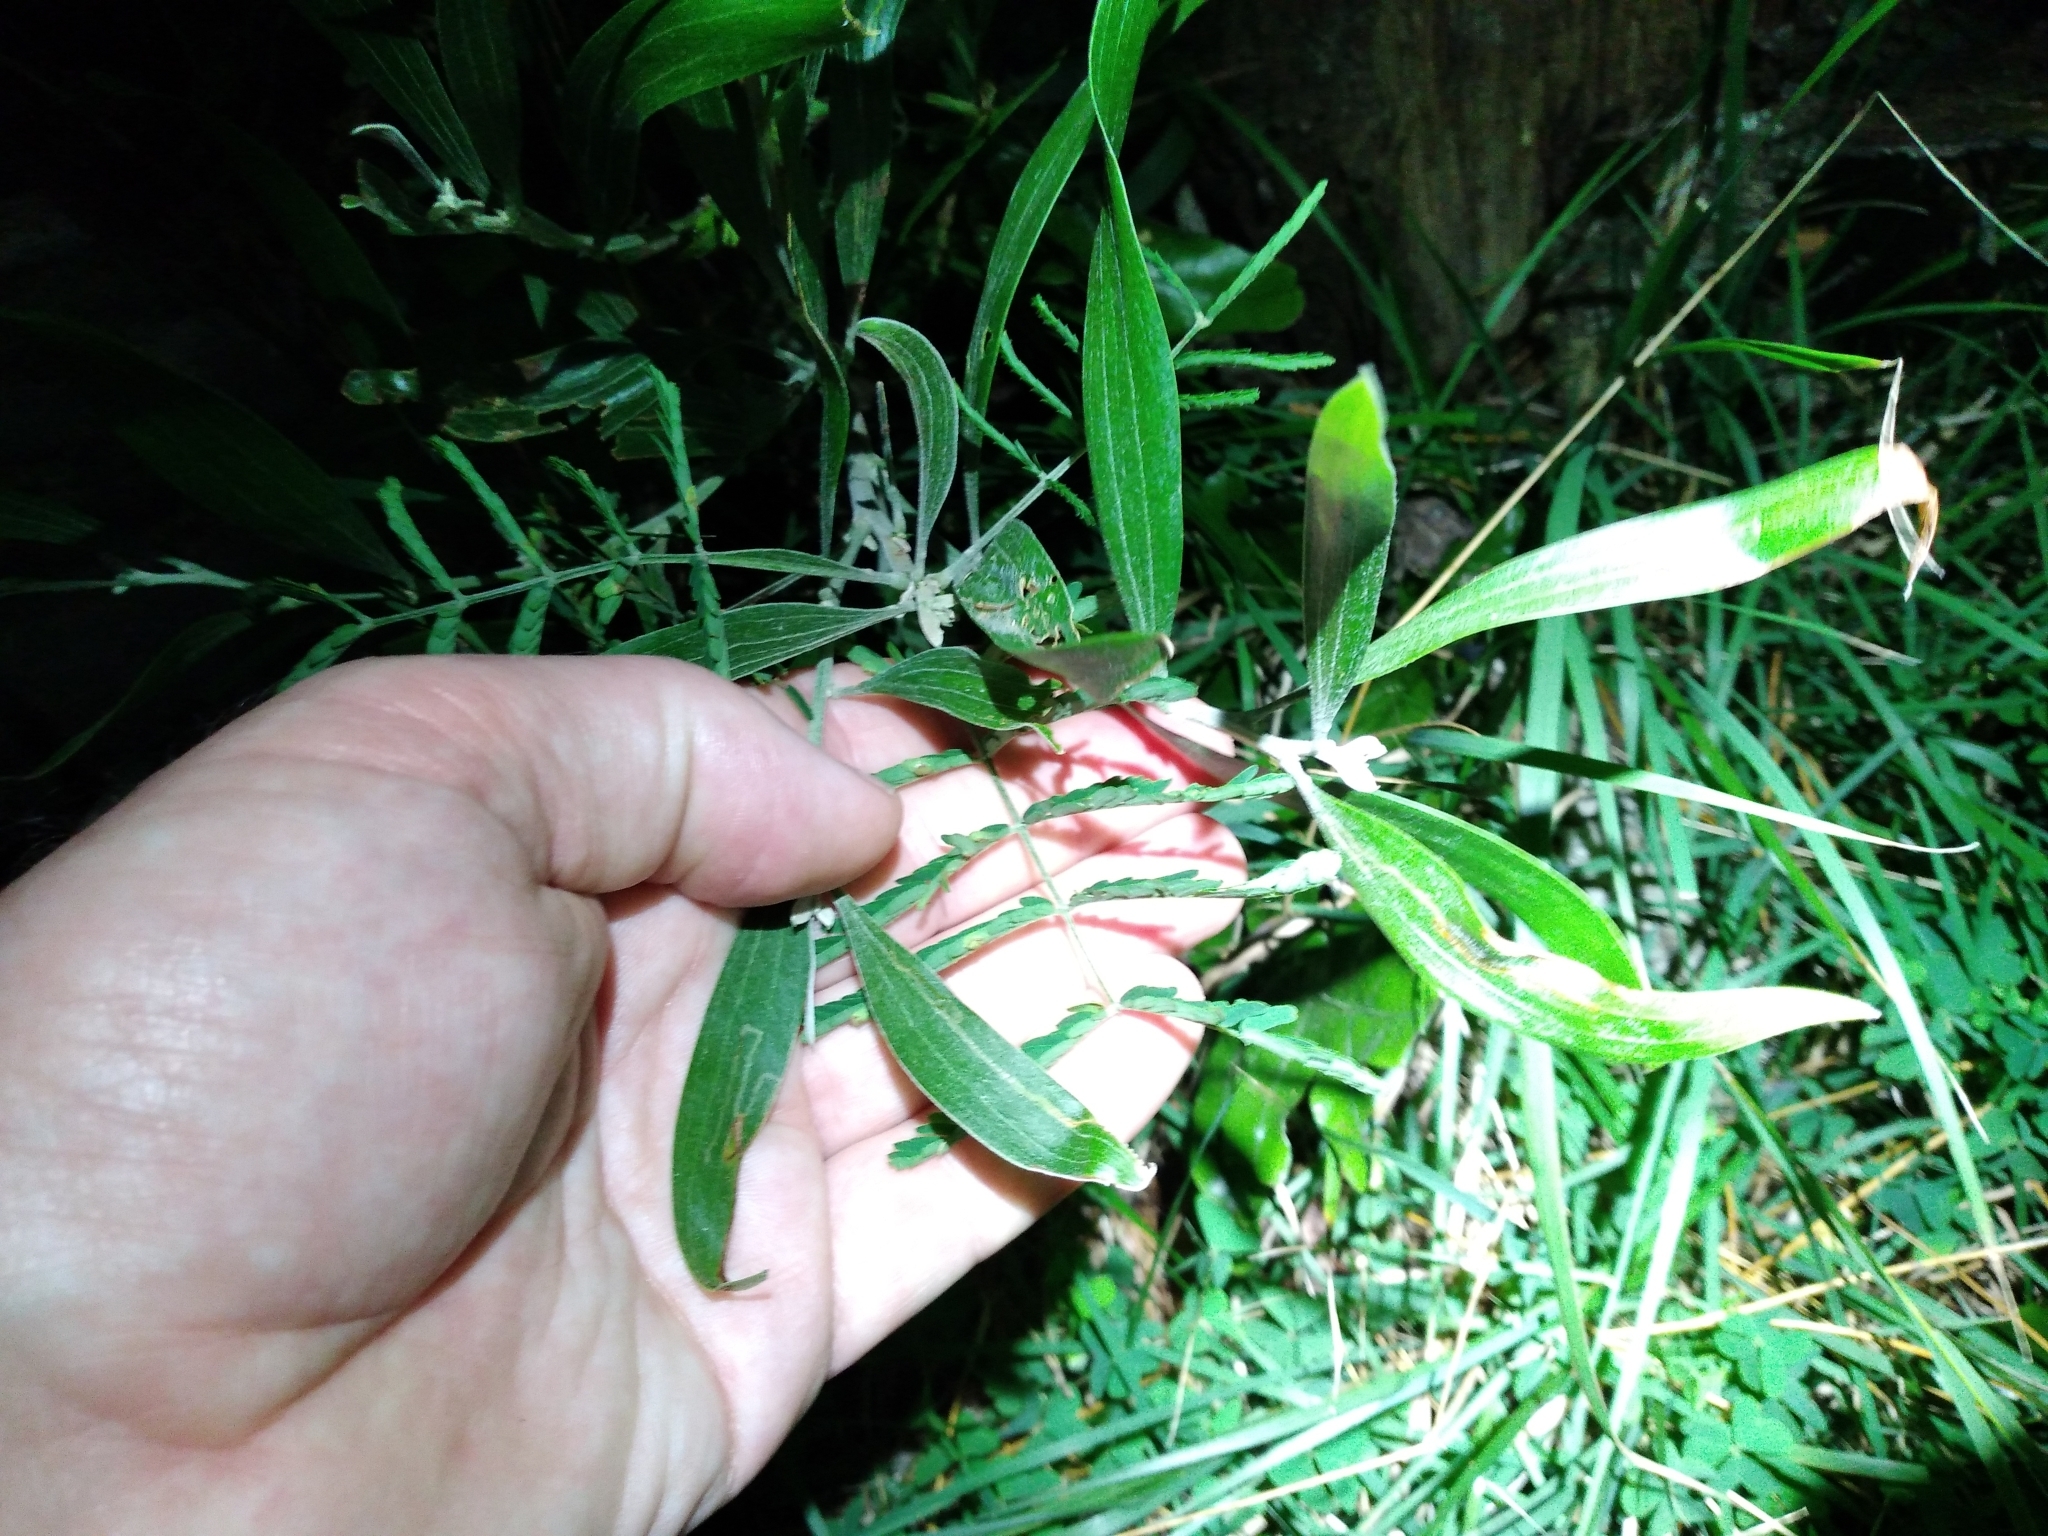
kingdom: Plantae
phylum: Tracheophyta
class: Magnoliopsida
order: Fabales
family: Fabaceae
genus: Acacia
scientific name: Acacia melanoxylon
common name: Blackwood
